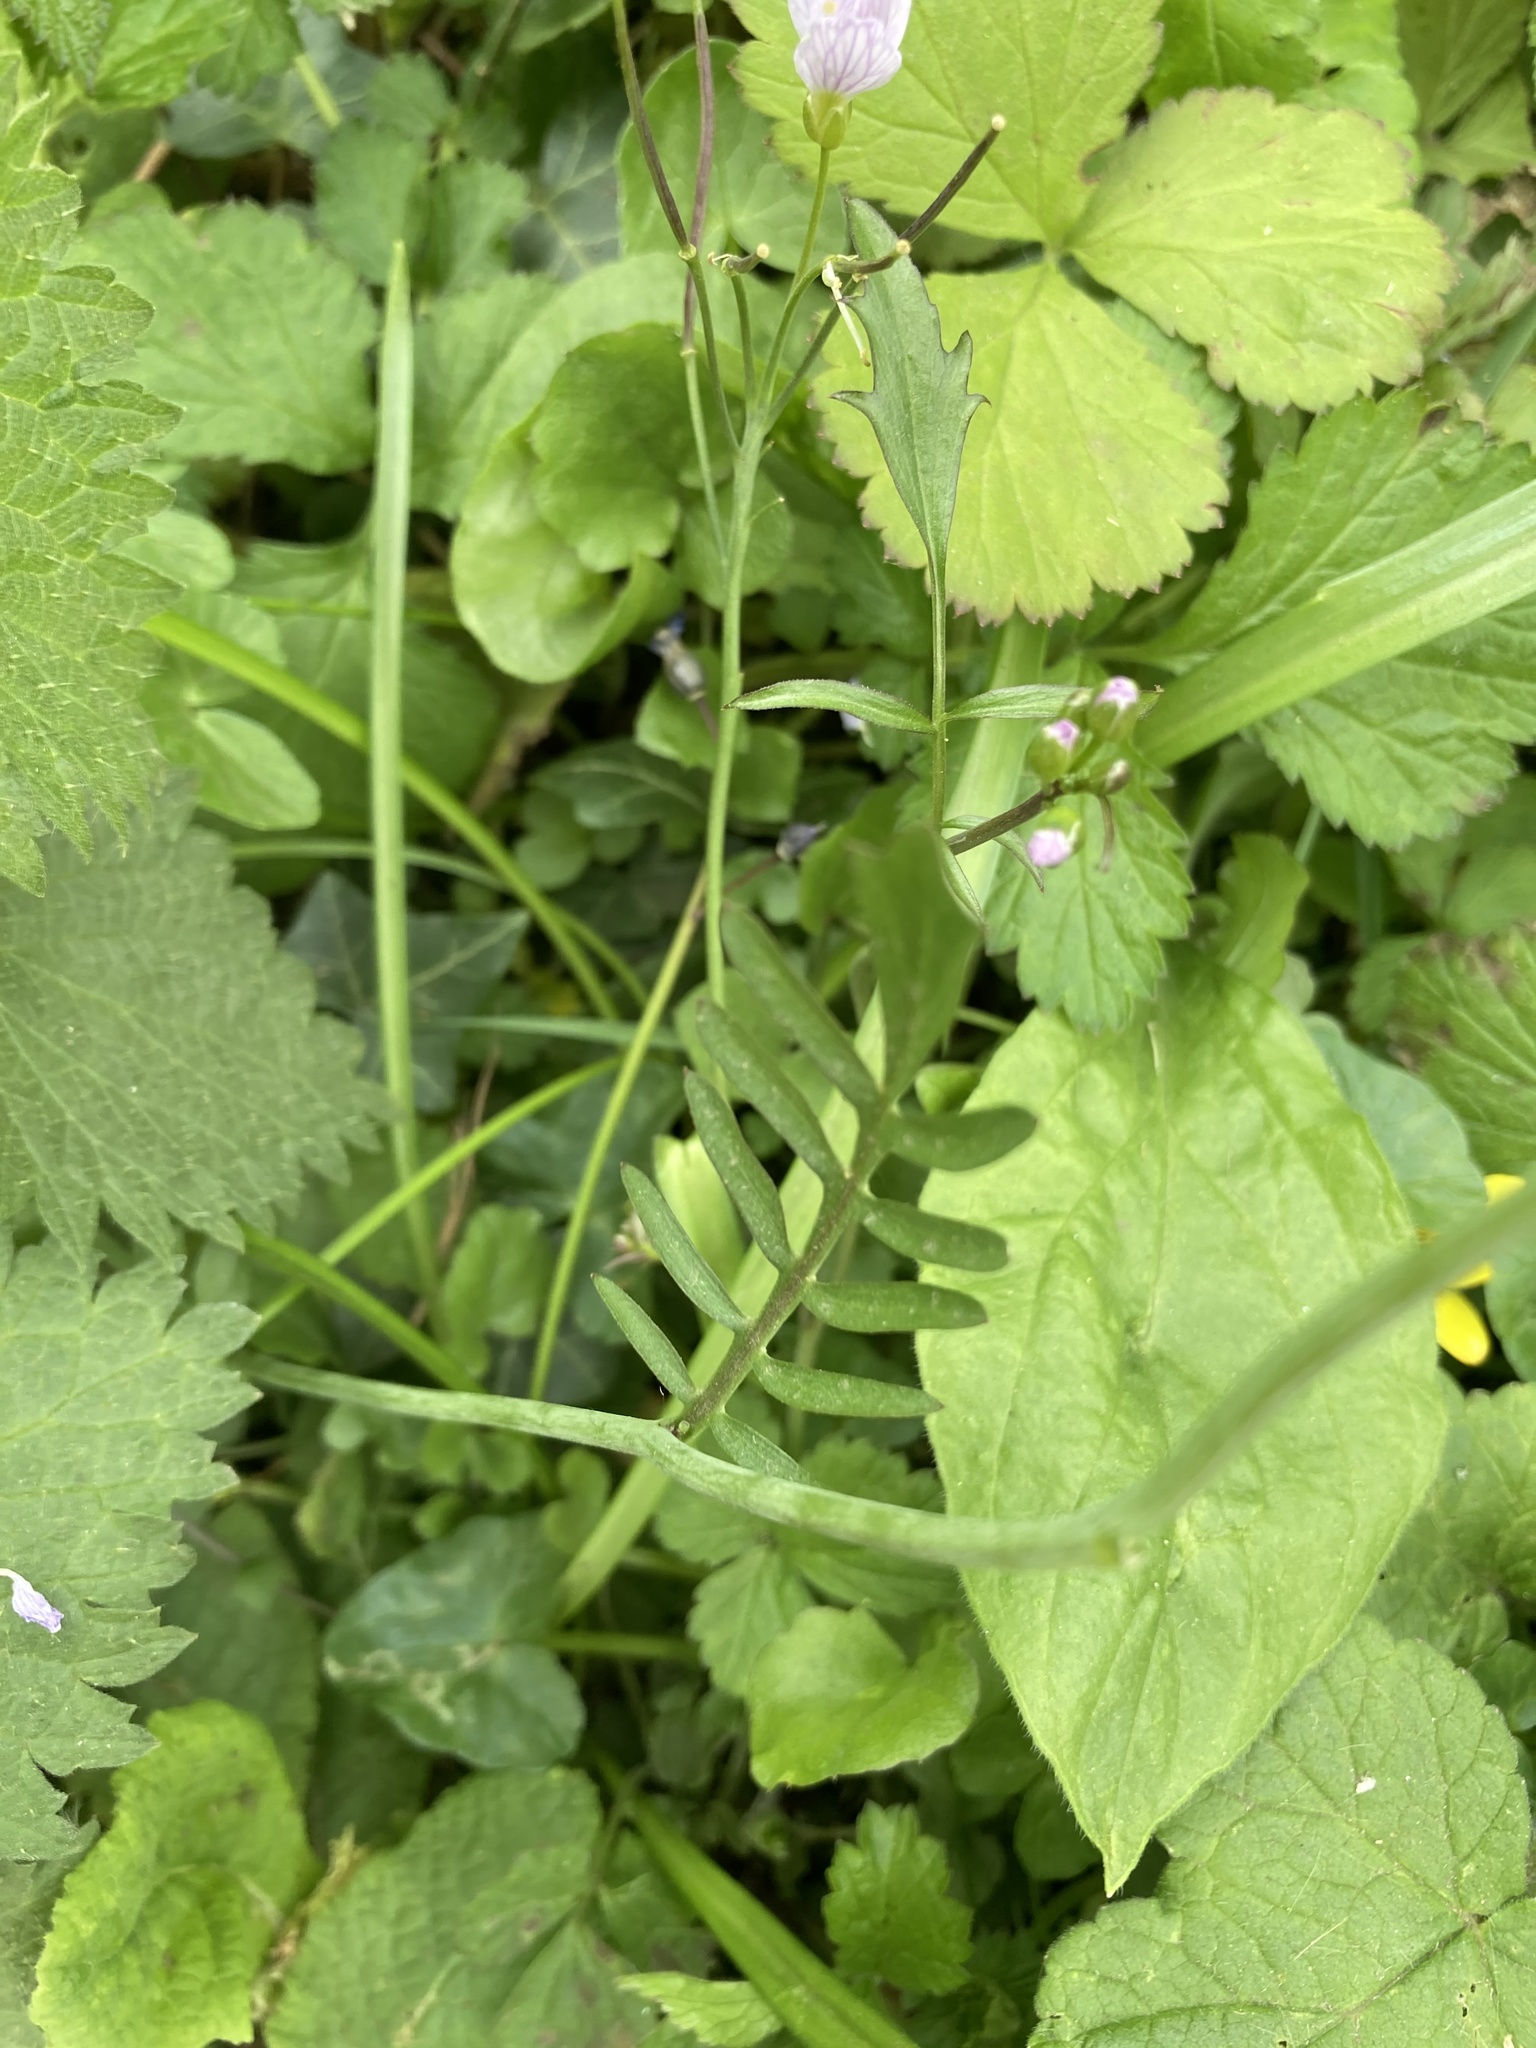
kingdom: Plantae
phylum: Tracheophyta
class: Magnoliopsida
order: Brassicales
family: Brassicaceae
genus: Cardamine
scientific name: Cardamine pratensis
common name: Cuckoo flower
